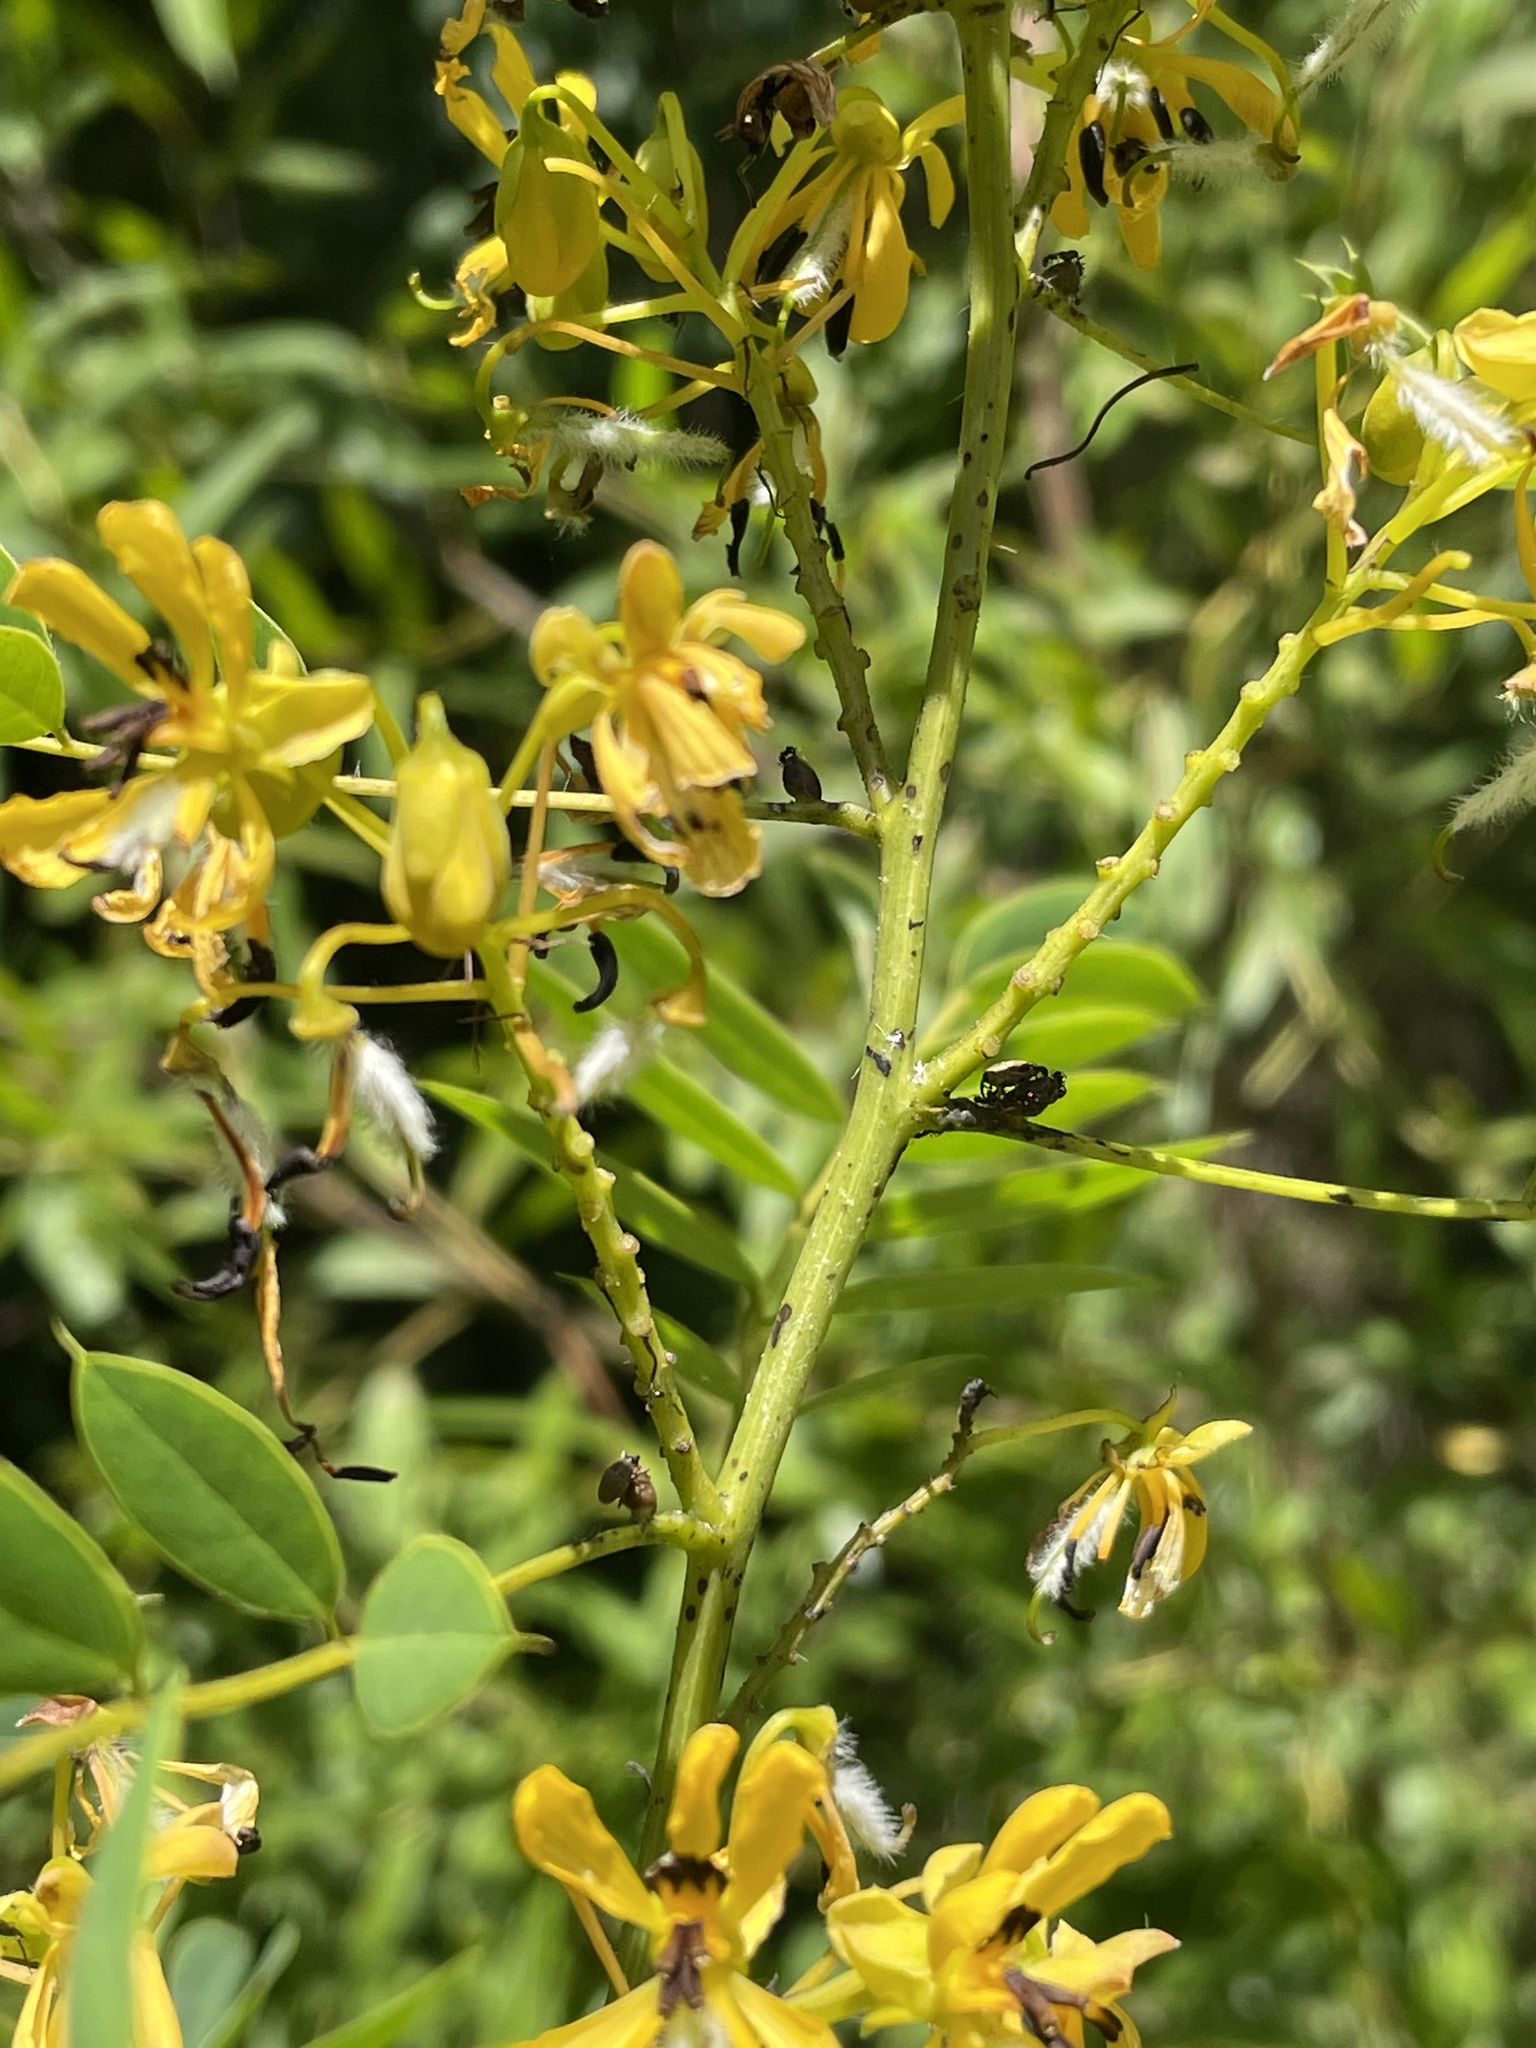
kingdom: Plantae
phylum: Tracheophyta
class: Magnoliopsida
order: Fabales
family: Fabaceae
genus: Senna
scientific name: Senna hebecarpa
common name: Wild senna
